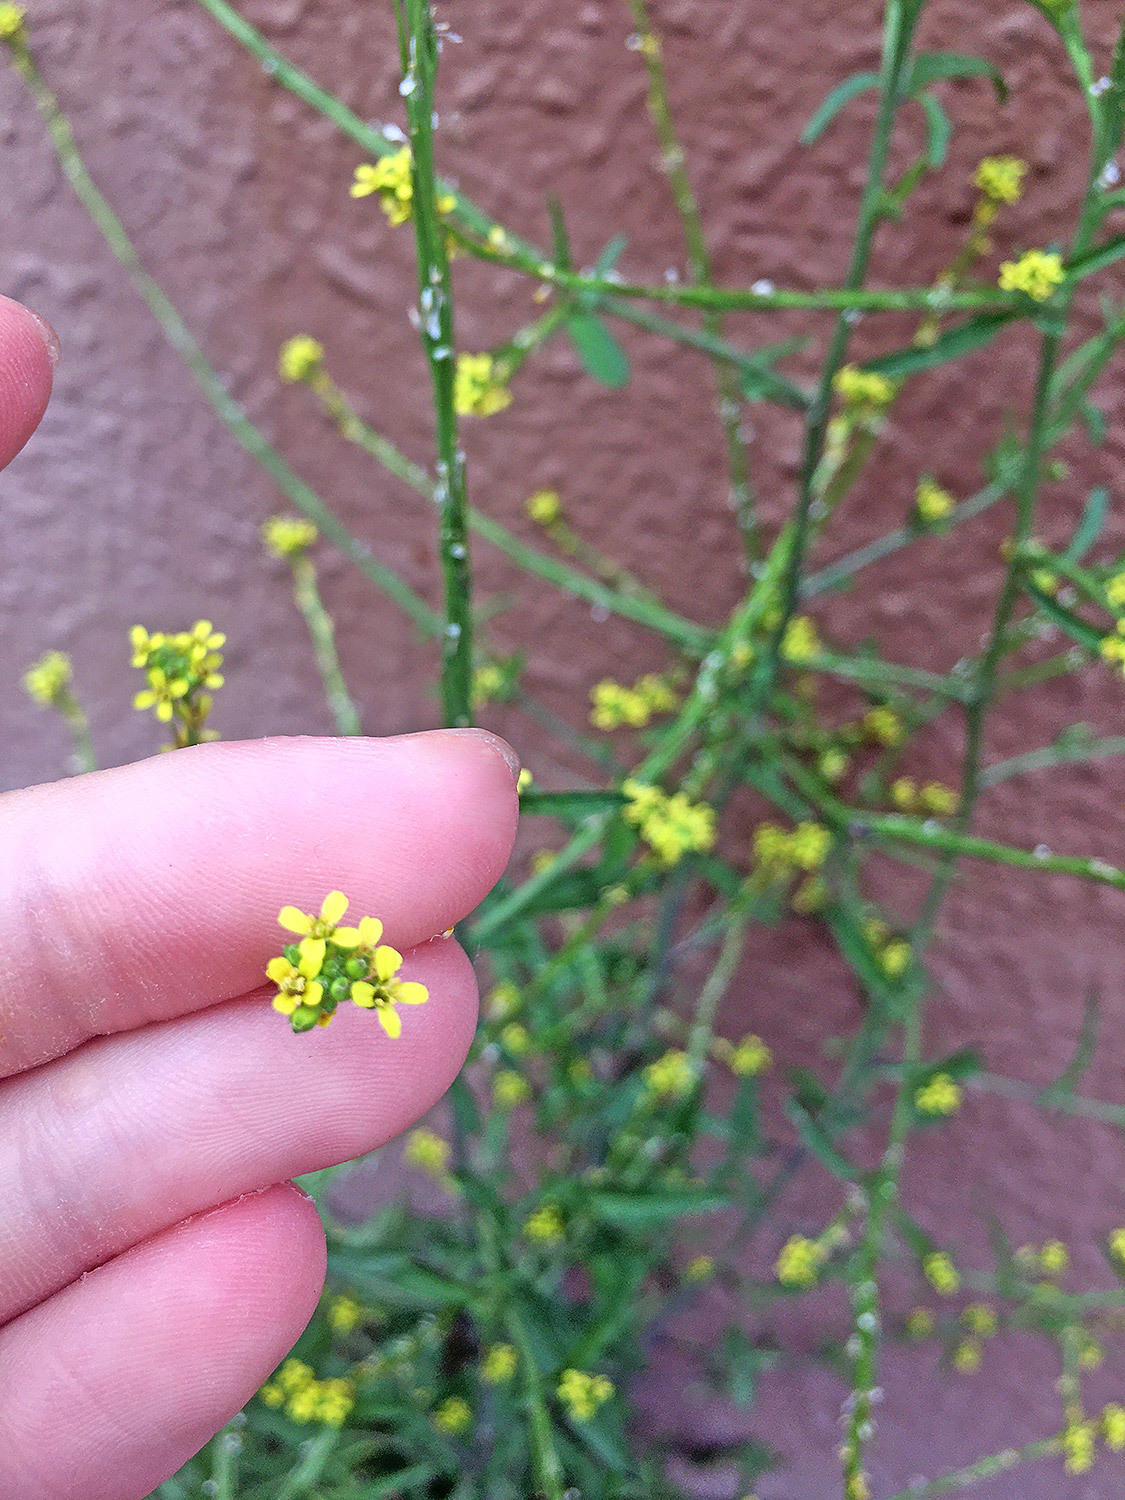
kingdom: Plantae
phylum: Tracheophyta
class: Magnoliopsida
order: Brassicales
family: Brassicaceae
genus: Sisymbrium
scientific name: Sisymbrium officinale
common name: Hedge mustard
